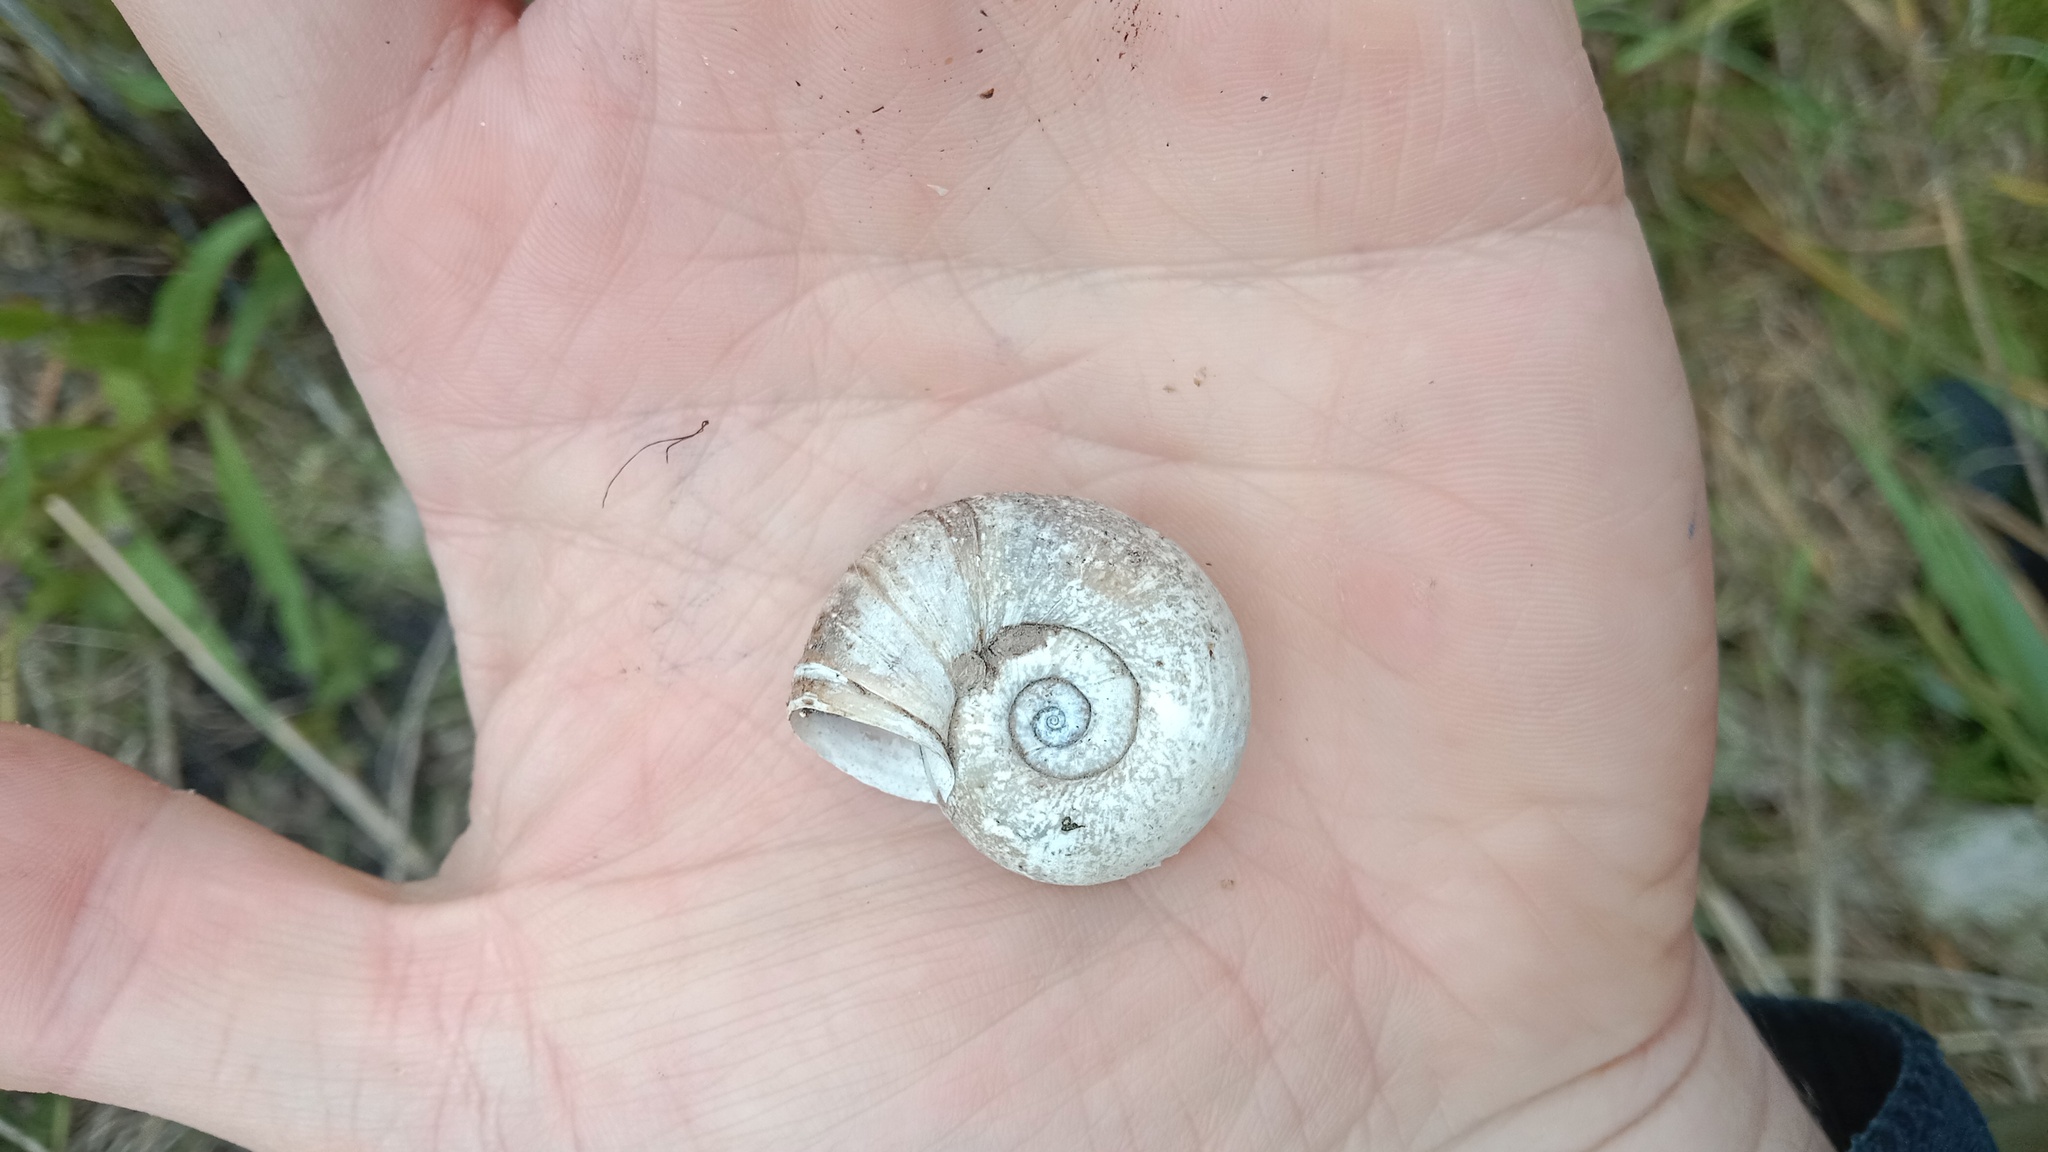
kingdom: Animalia
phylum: Mollusca
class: Gastropoda
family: Planorbidae
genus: Planorbarius
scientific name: Planorbarius corneus
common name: Great ramshorn
